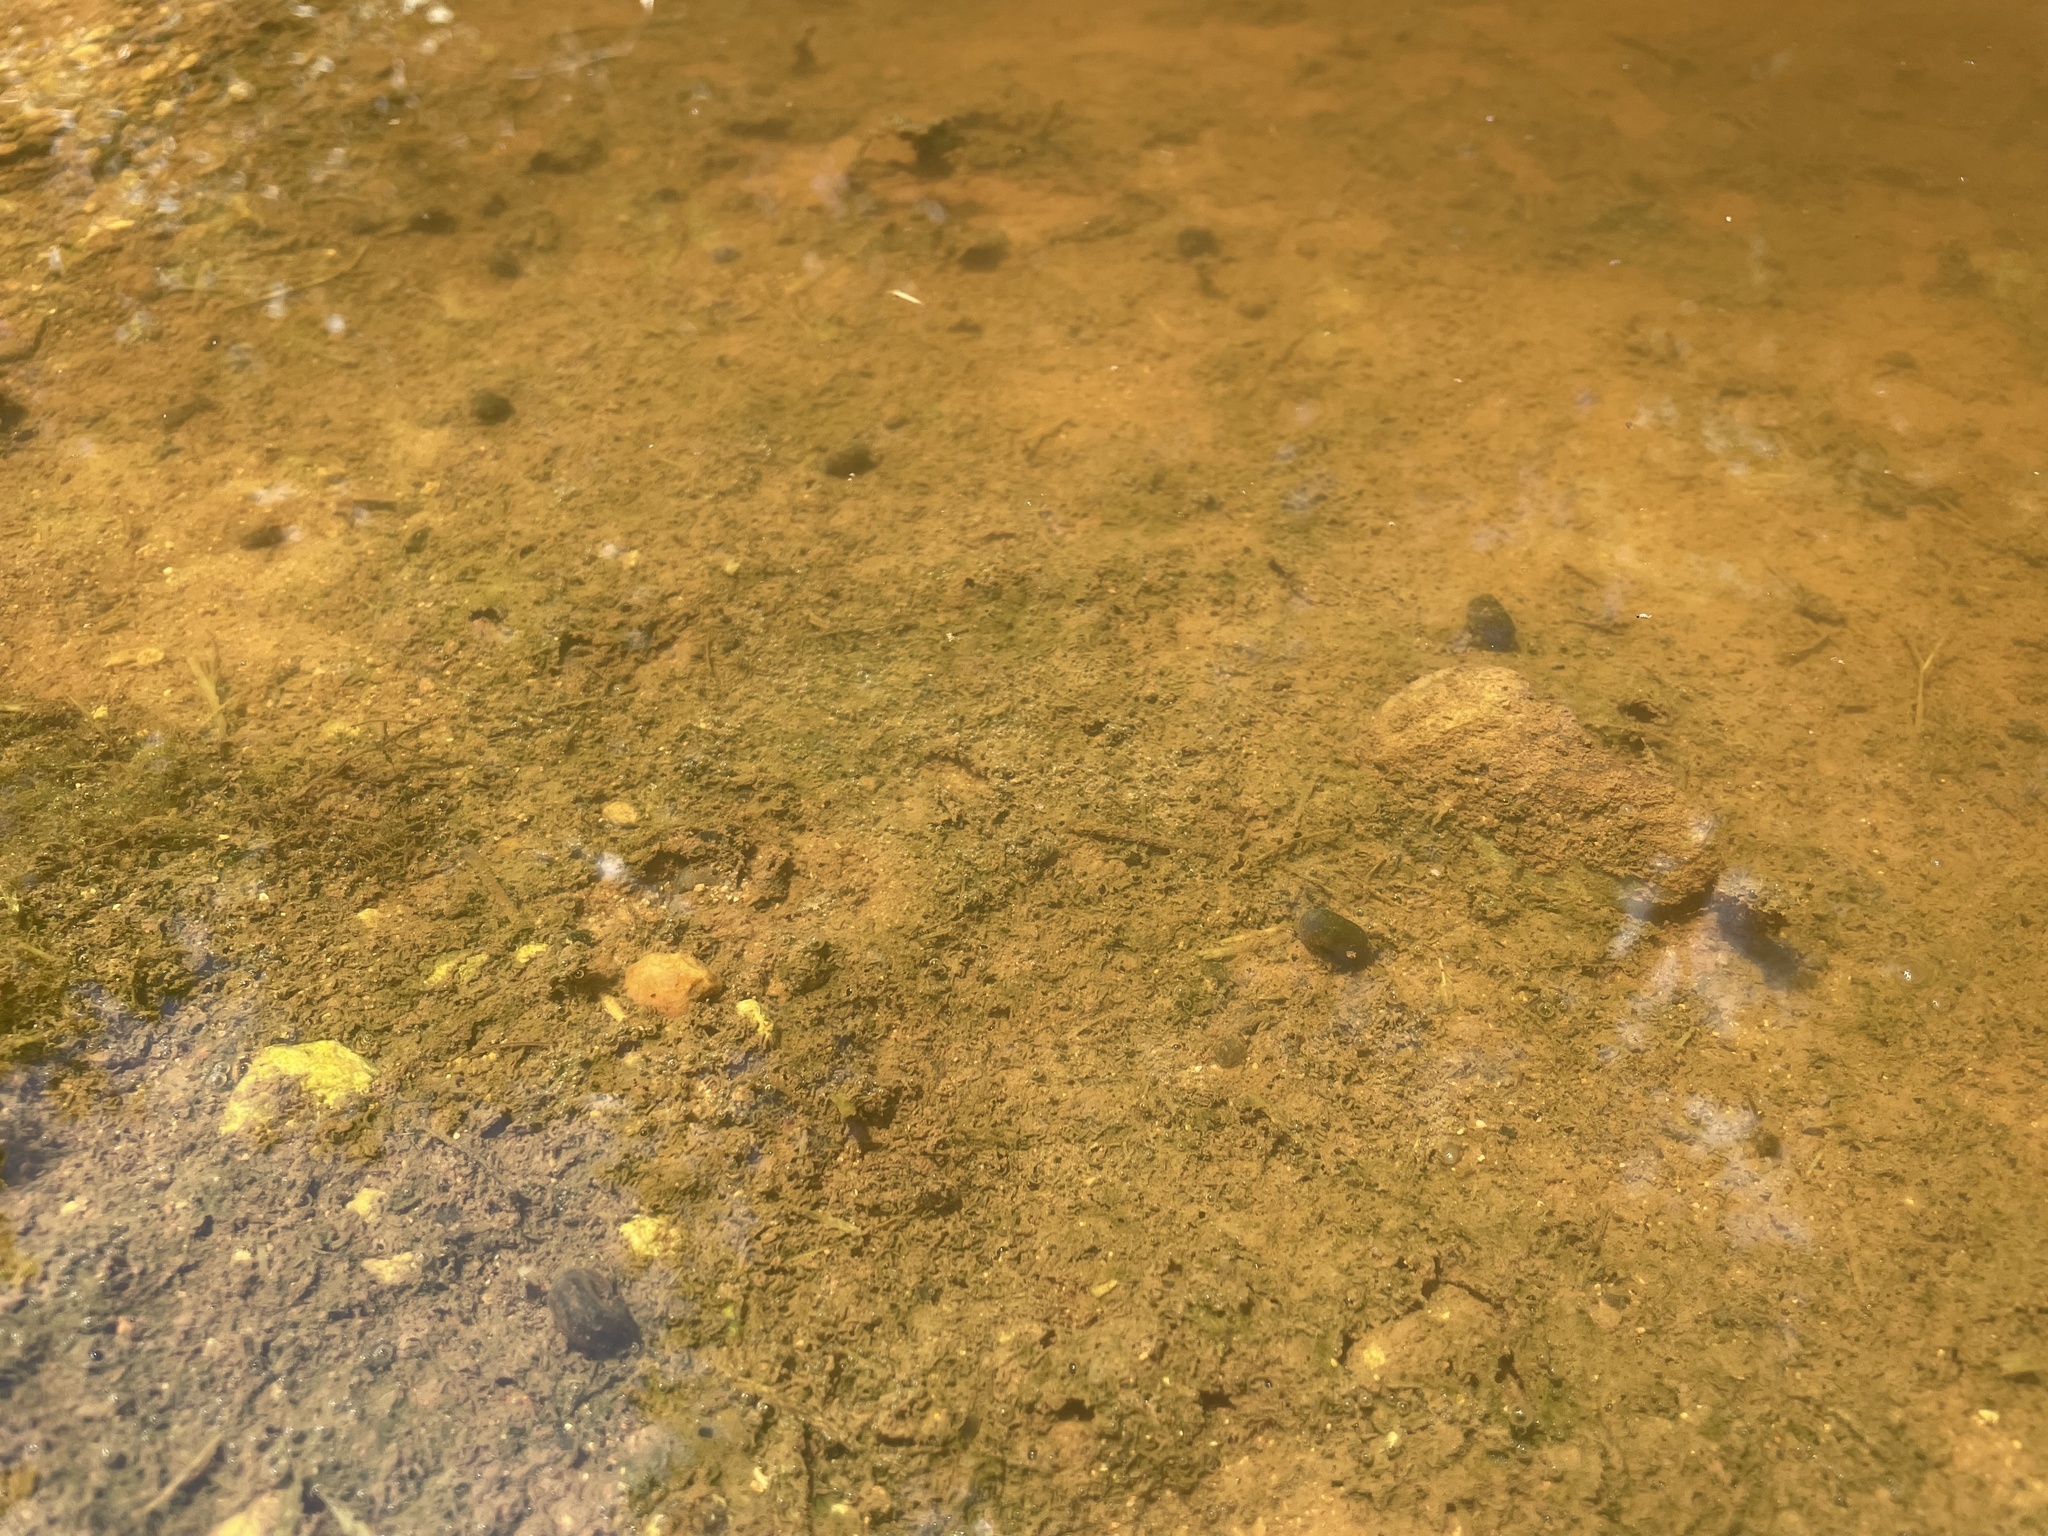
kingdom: Animalia
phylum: Mollusca
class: Gastropoda
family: Planorbidae
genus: Planorbella
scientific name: Planorbella trivolvis
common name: Marsh rams-horn
